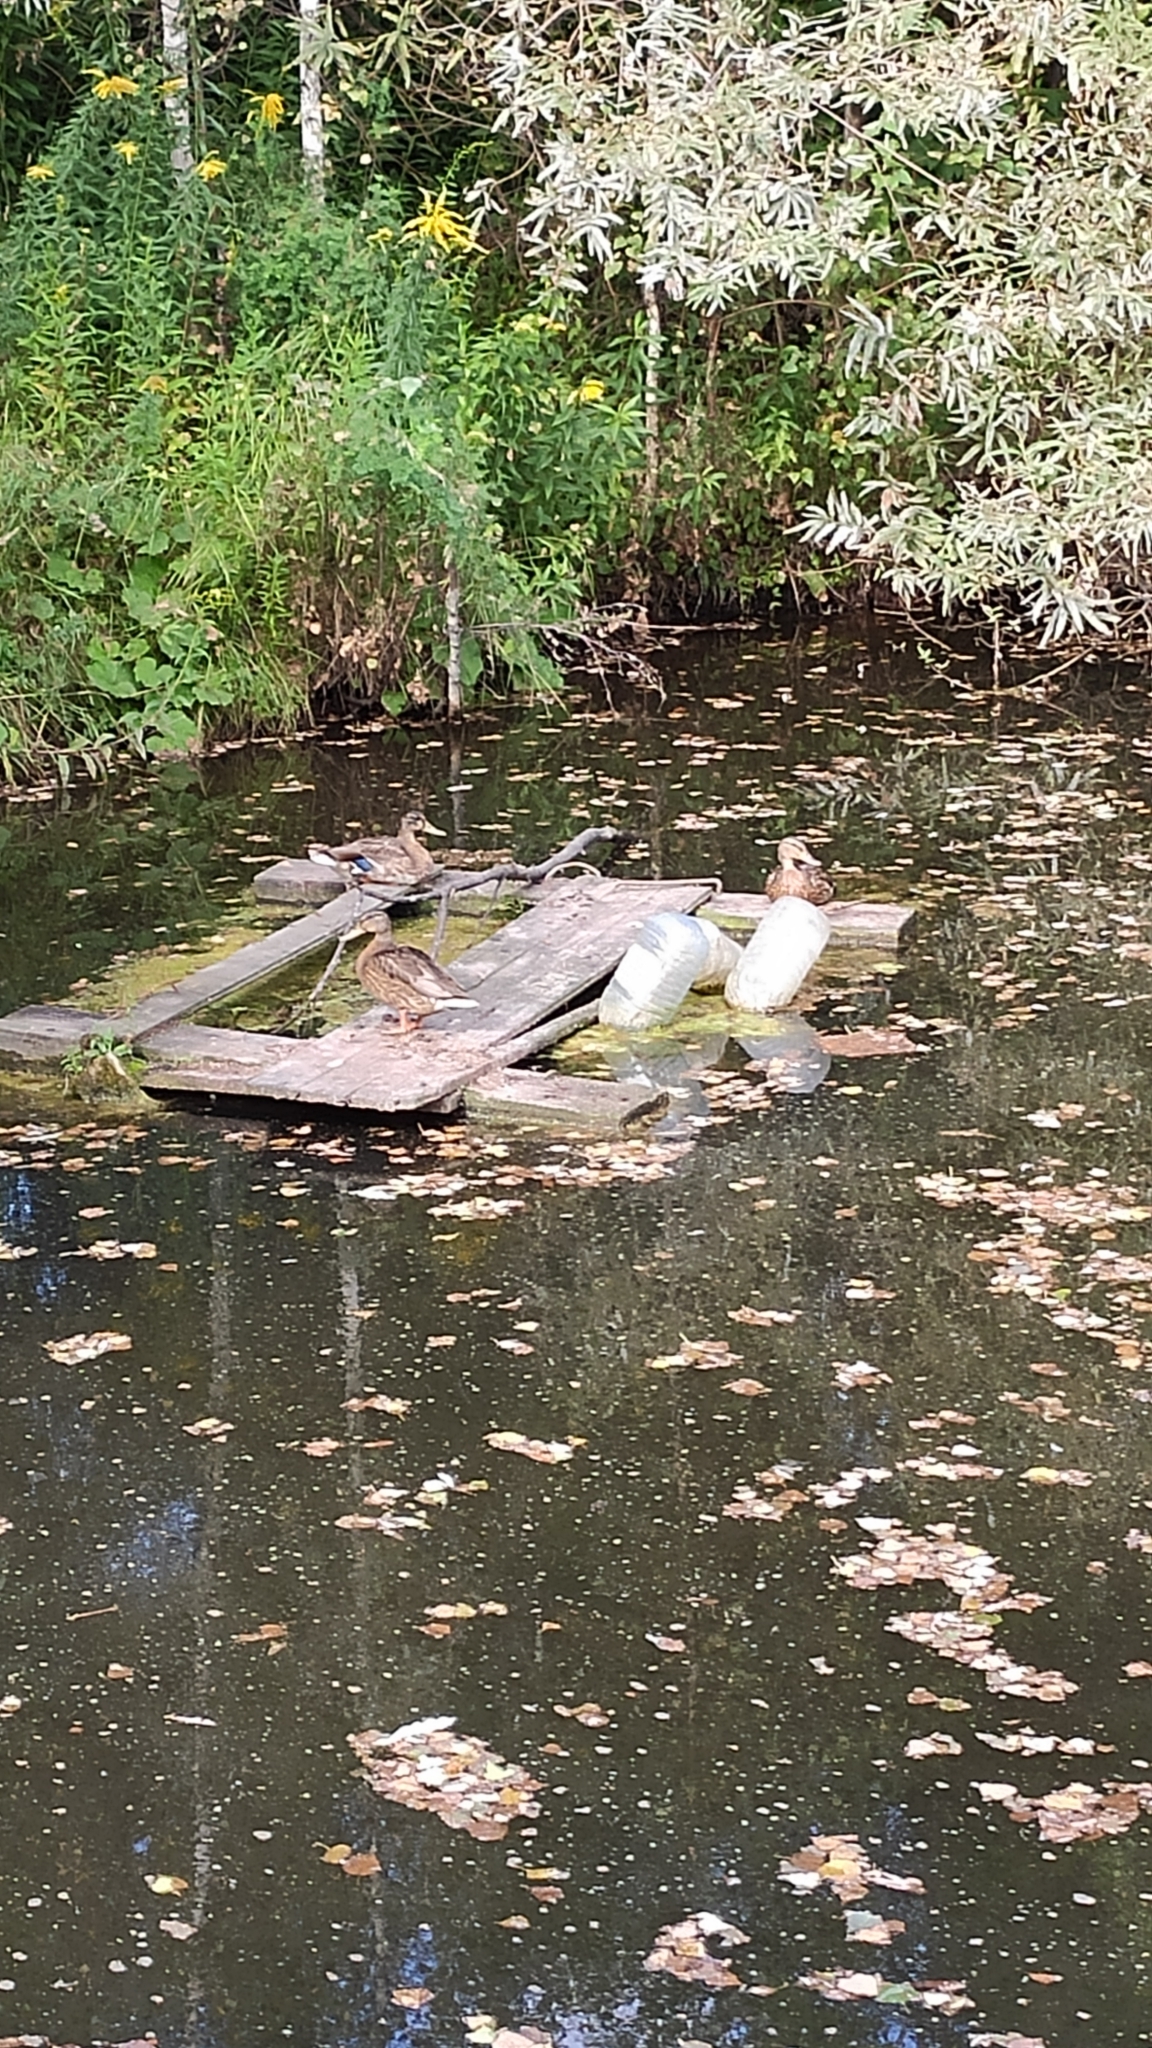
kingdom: Animalia
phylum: Chordata
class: Aves
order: Anseriformes
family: Anatidae
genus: Anas
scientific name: Anas platyrhynchos
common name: Mallard
